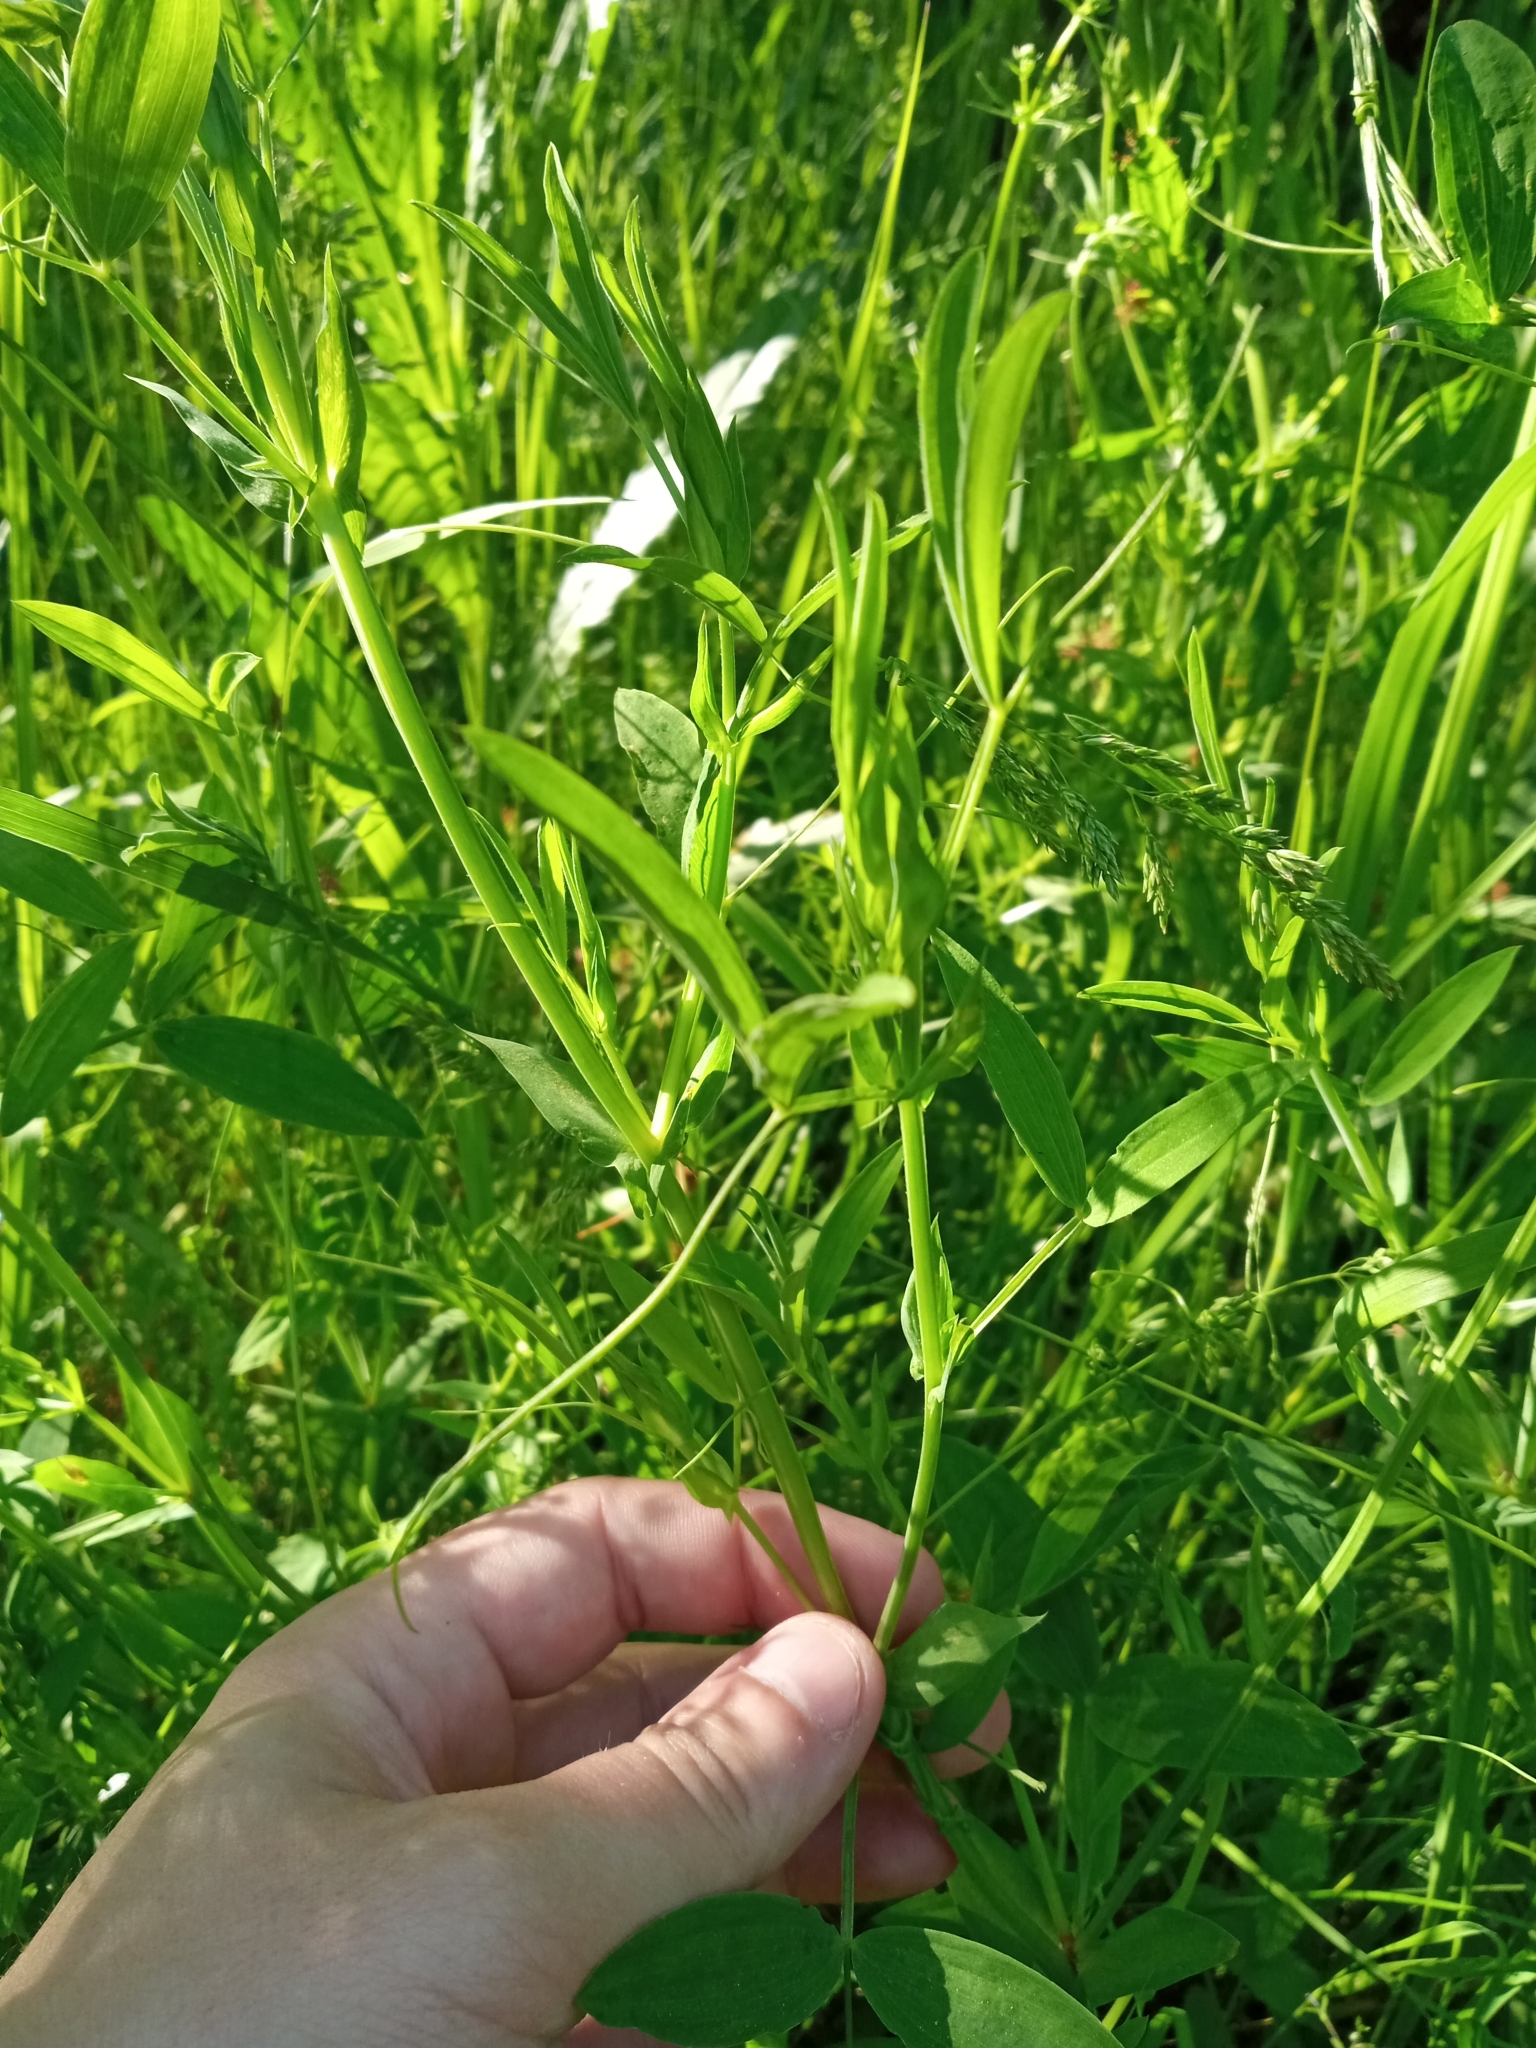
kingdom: Plantae
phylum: Tracheophyta
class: Magnoliopsida
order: Fabales
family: Fabaceae
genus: Lathyrus
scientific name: Lathyrus pratensis
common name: Meadow vetchling
